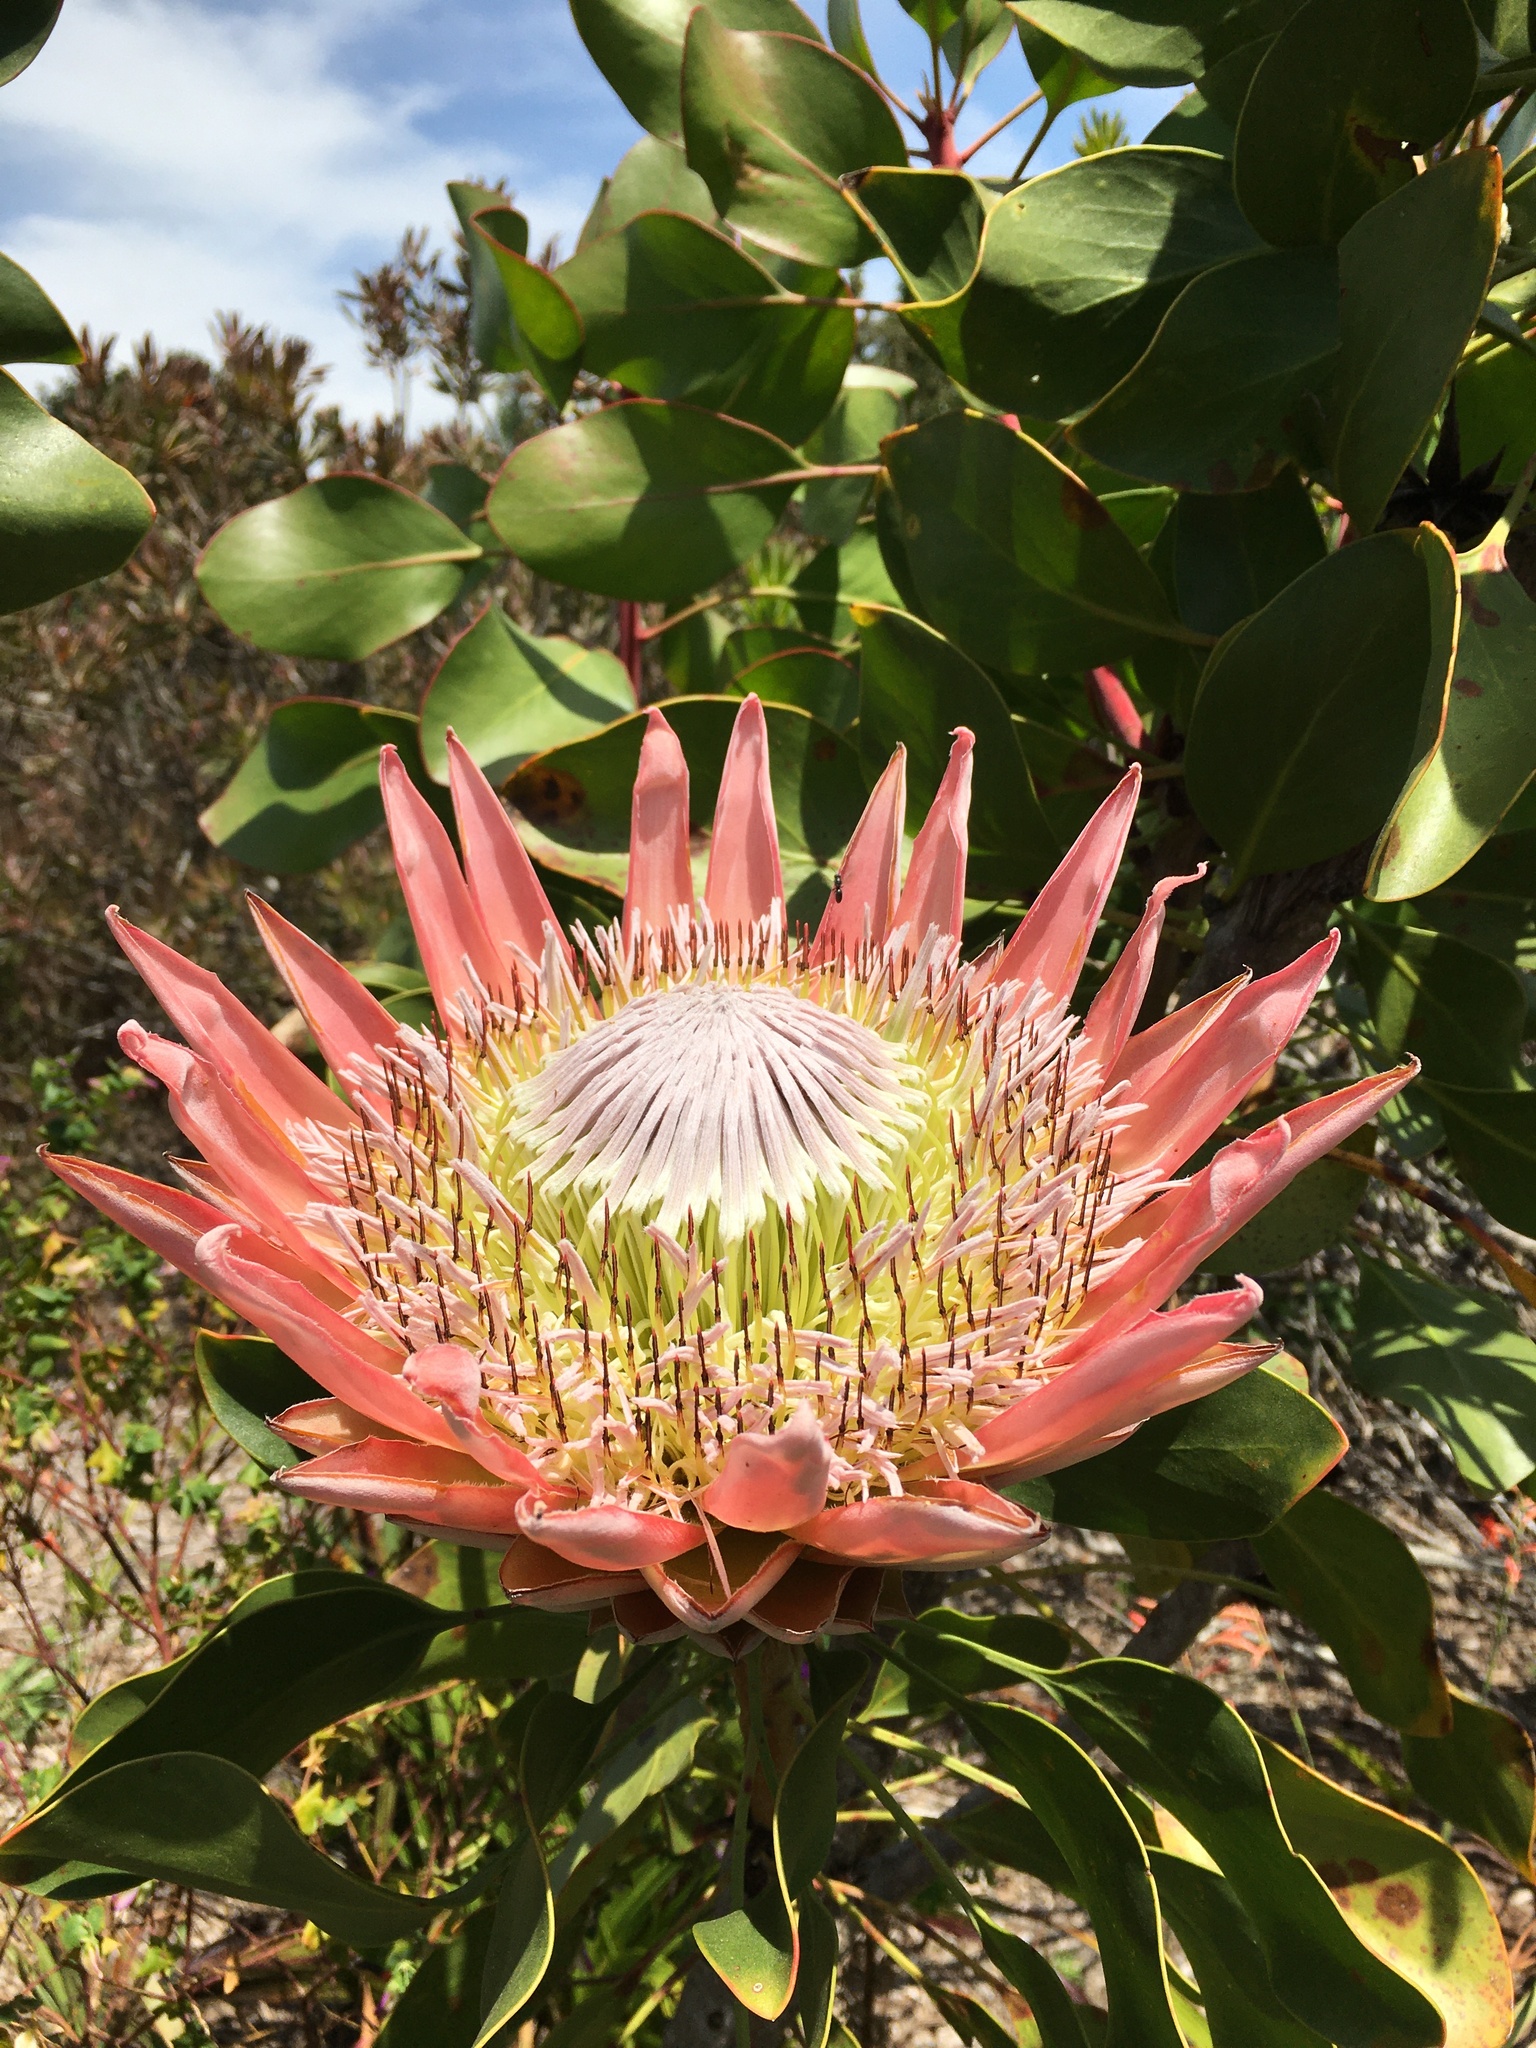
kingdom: Plantae
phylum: Tracheophyta
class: Magnoliopsida
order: Proteales
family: Proteaceae
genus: Protea
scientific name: Protea cynaroides
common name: King protea
